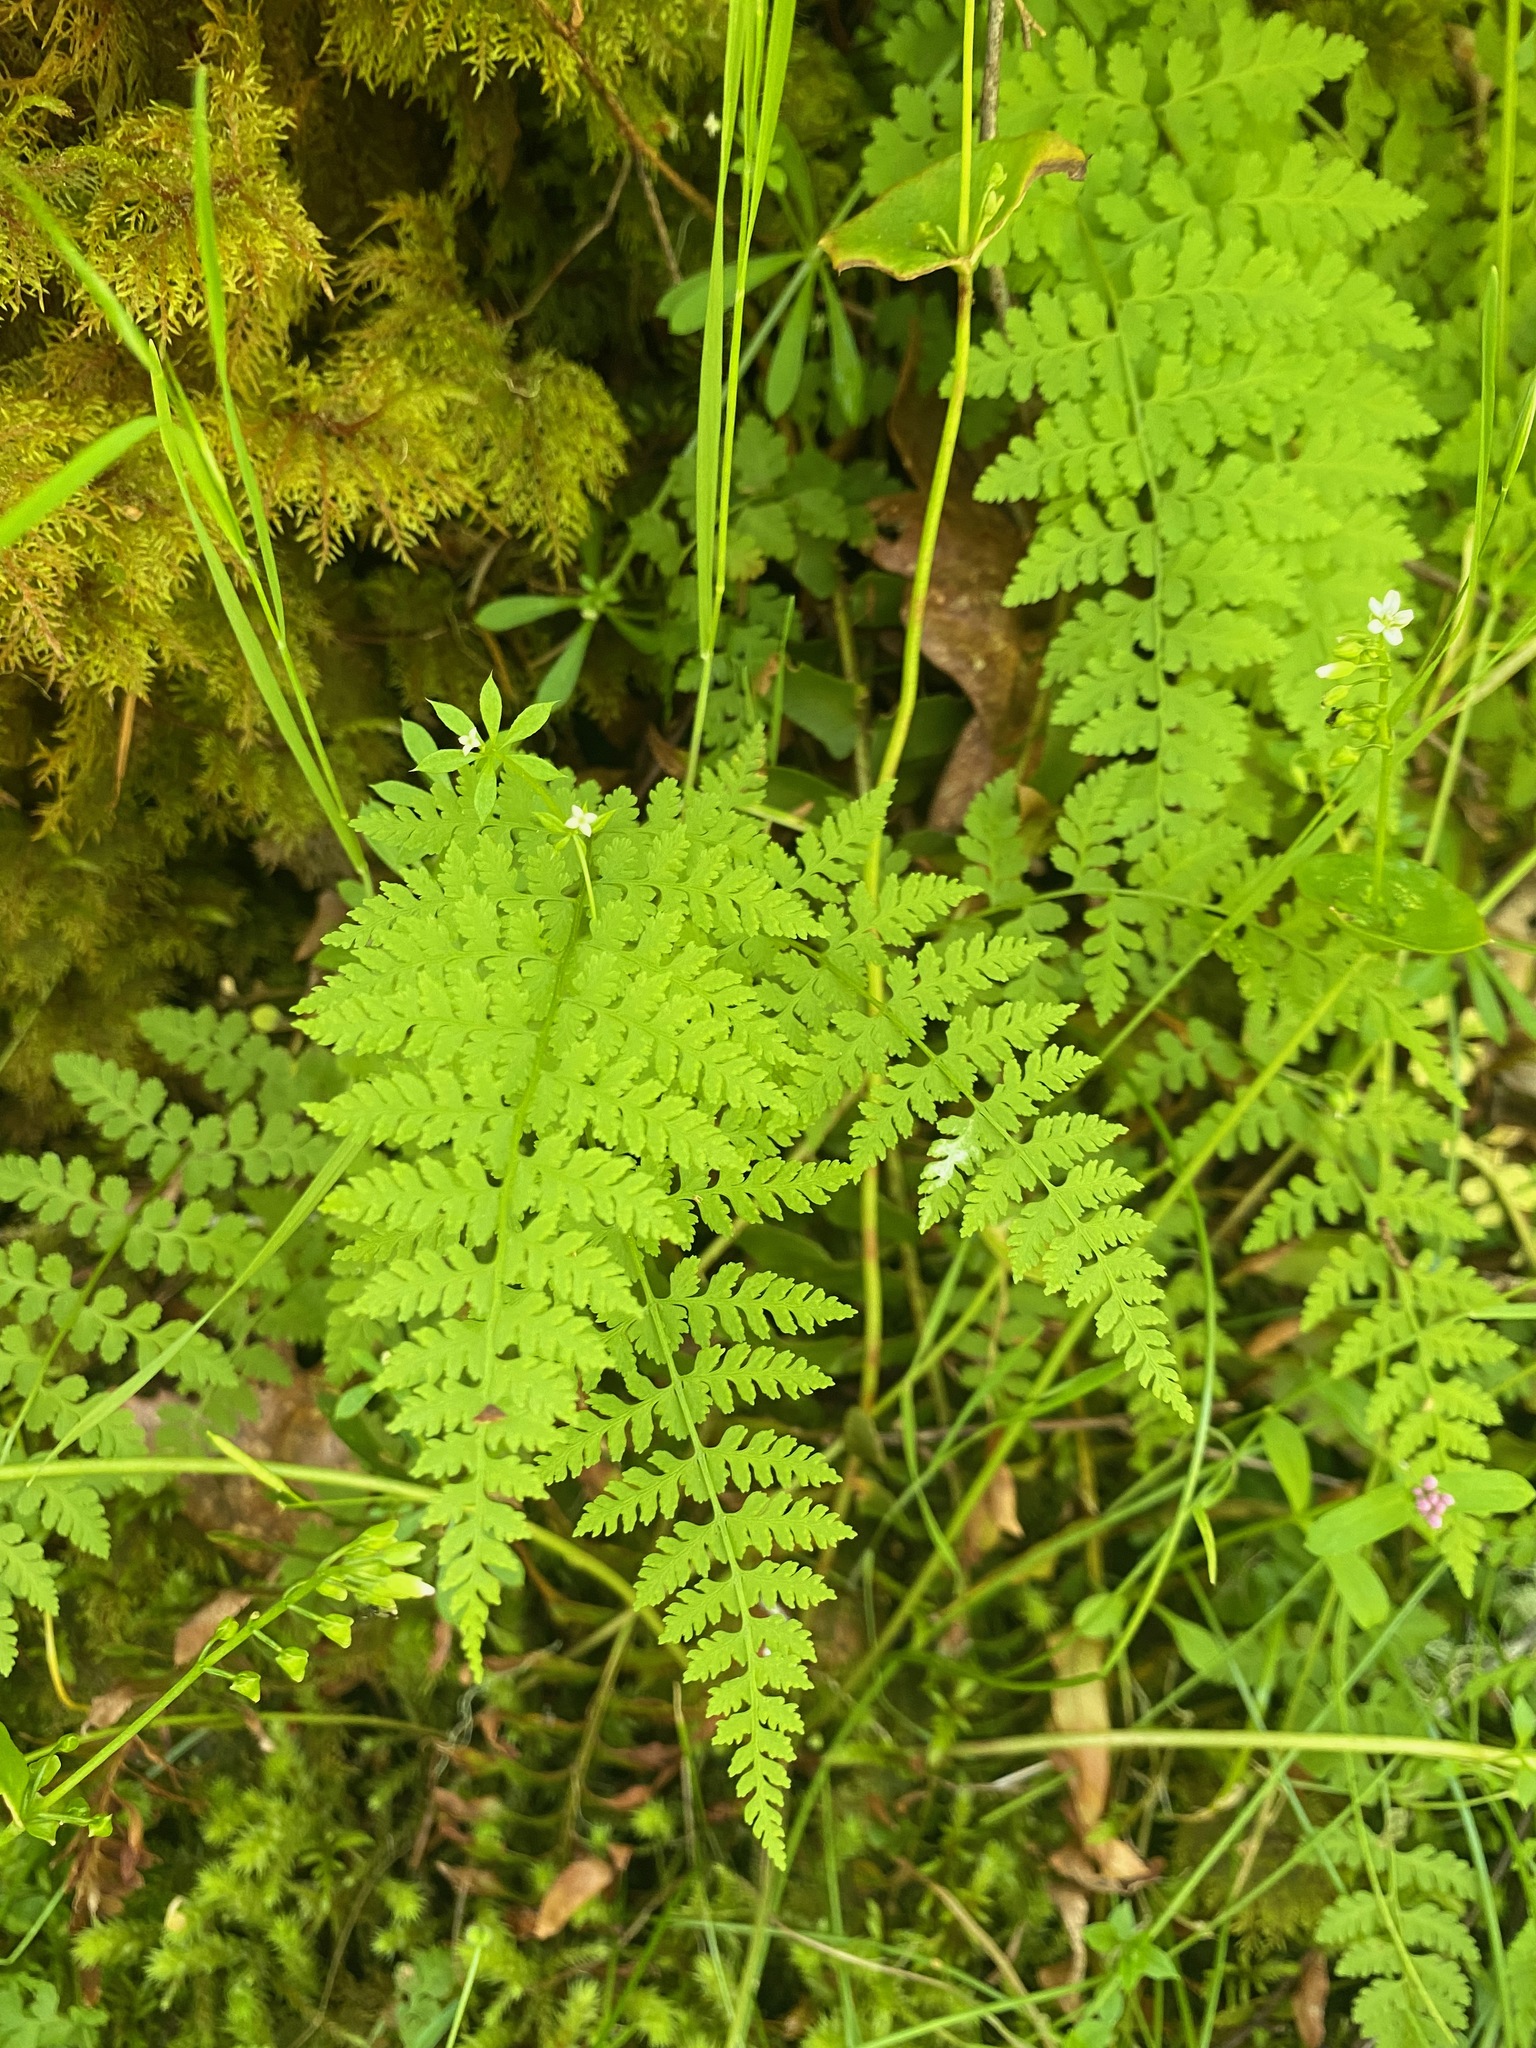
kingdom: Plantae
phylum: Tracheophyta
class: Polypodiopsida
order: Polypodiales
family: Cystopteridaceae
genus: Cystopteris
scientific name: Cystopteris fragilis
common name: Brittle bladder fern
